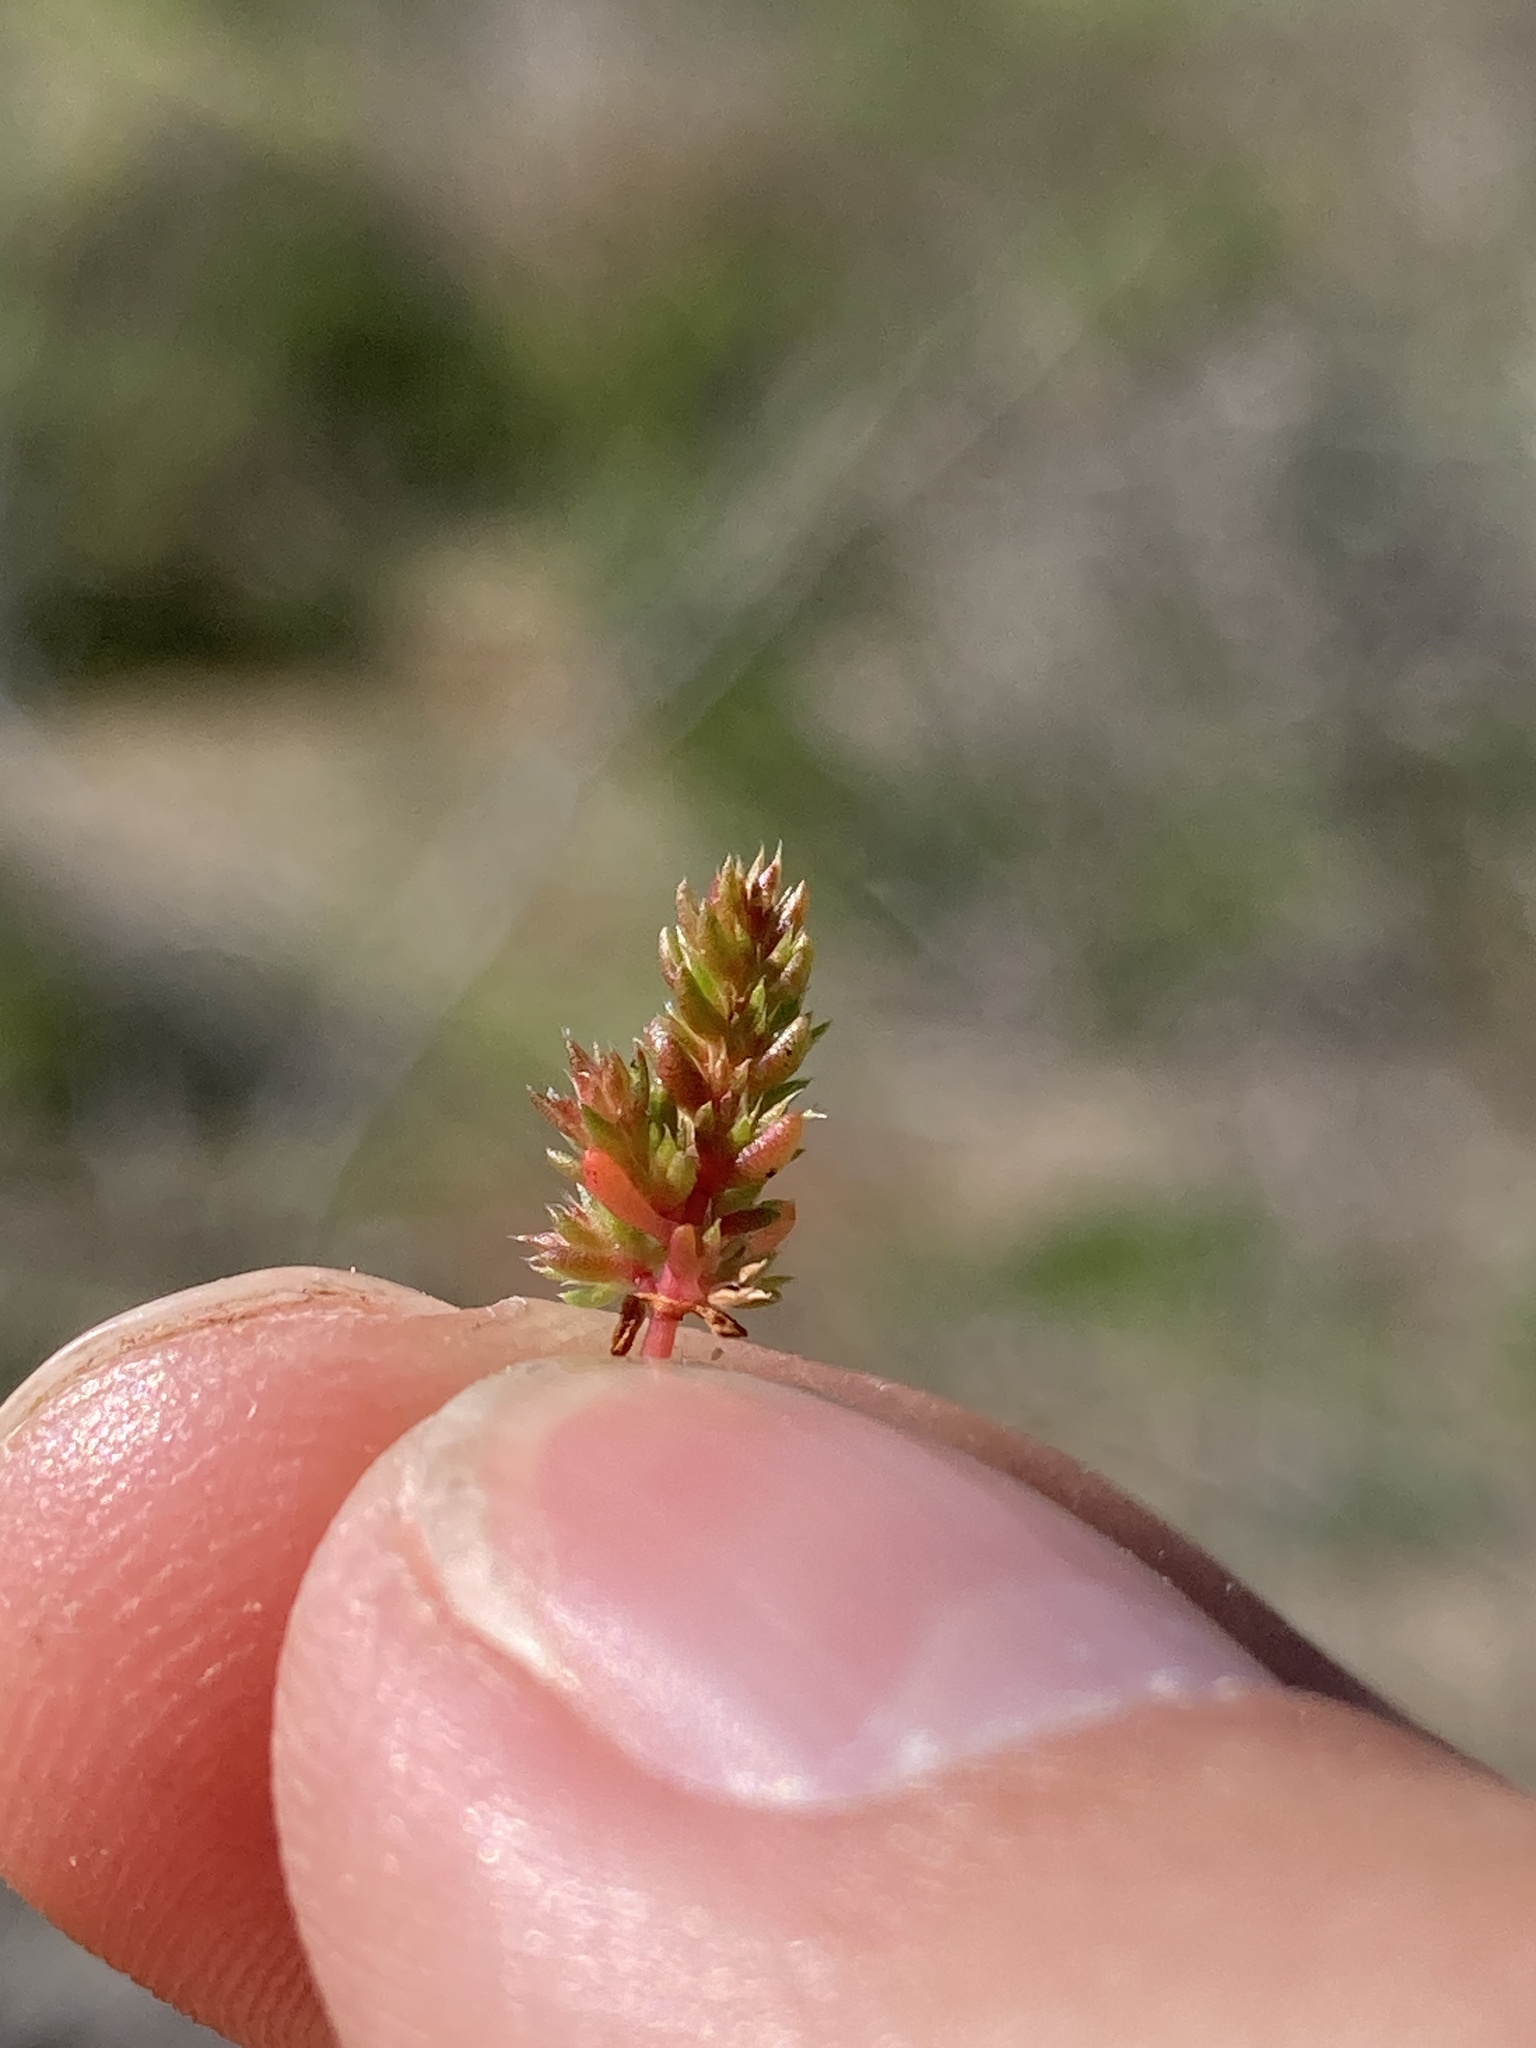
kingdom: Plantae
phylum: Tracheophyta
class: Magnoliopsida
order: Saxifragales
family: Crassulaceae
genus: Crassula
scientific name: Crassula tillaea
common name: Mossy stonecrop
